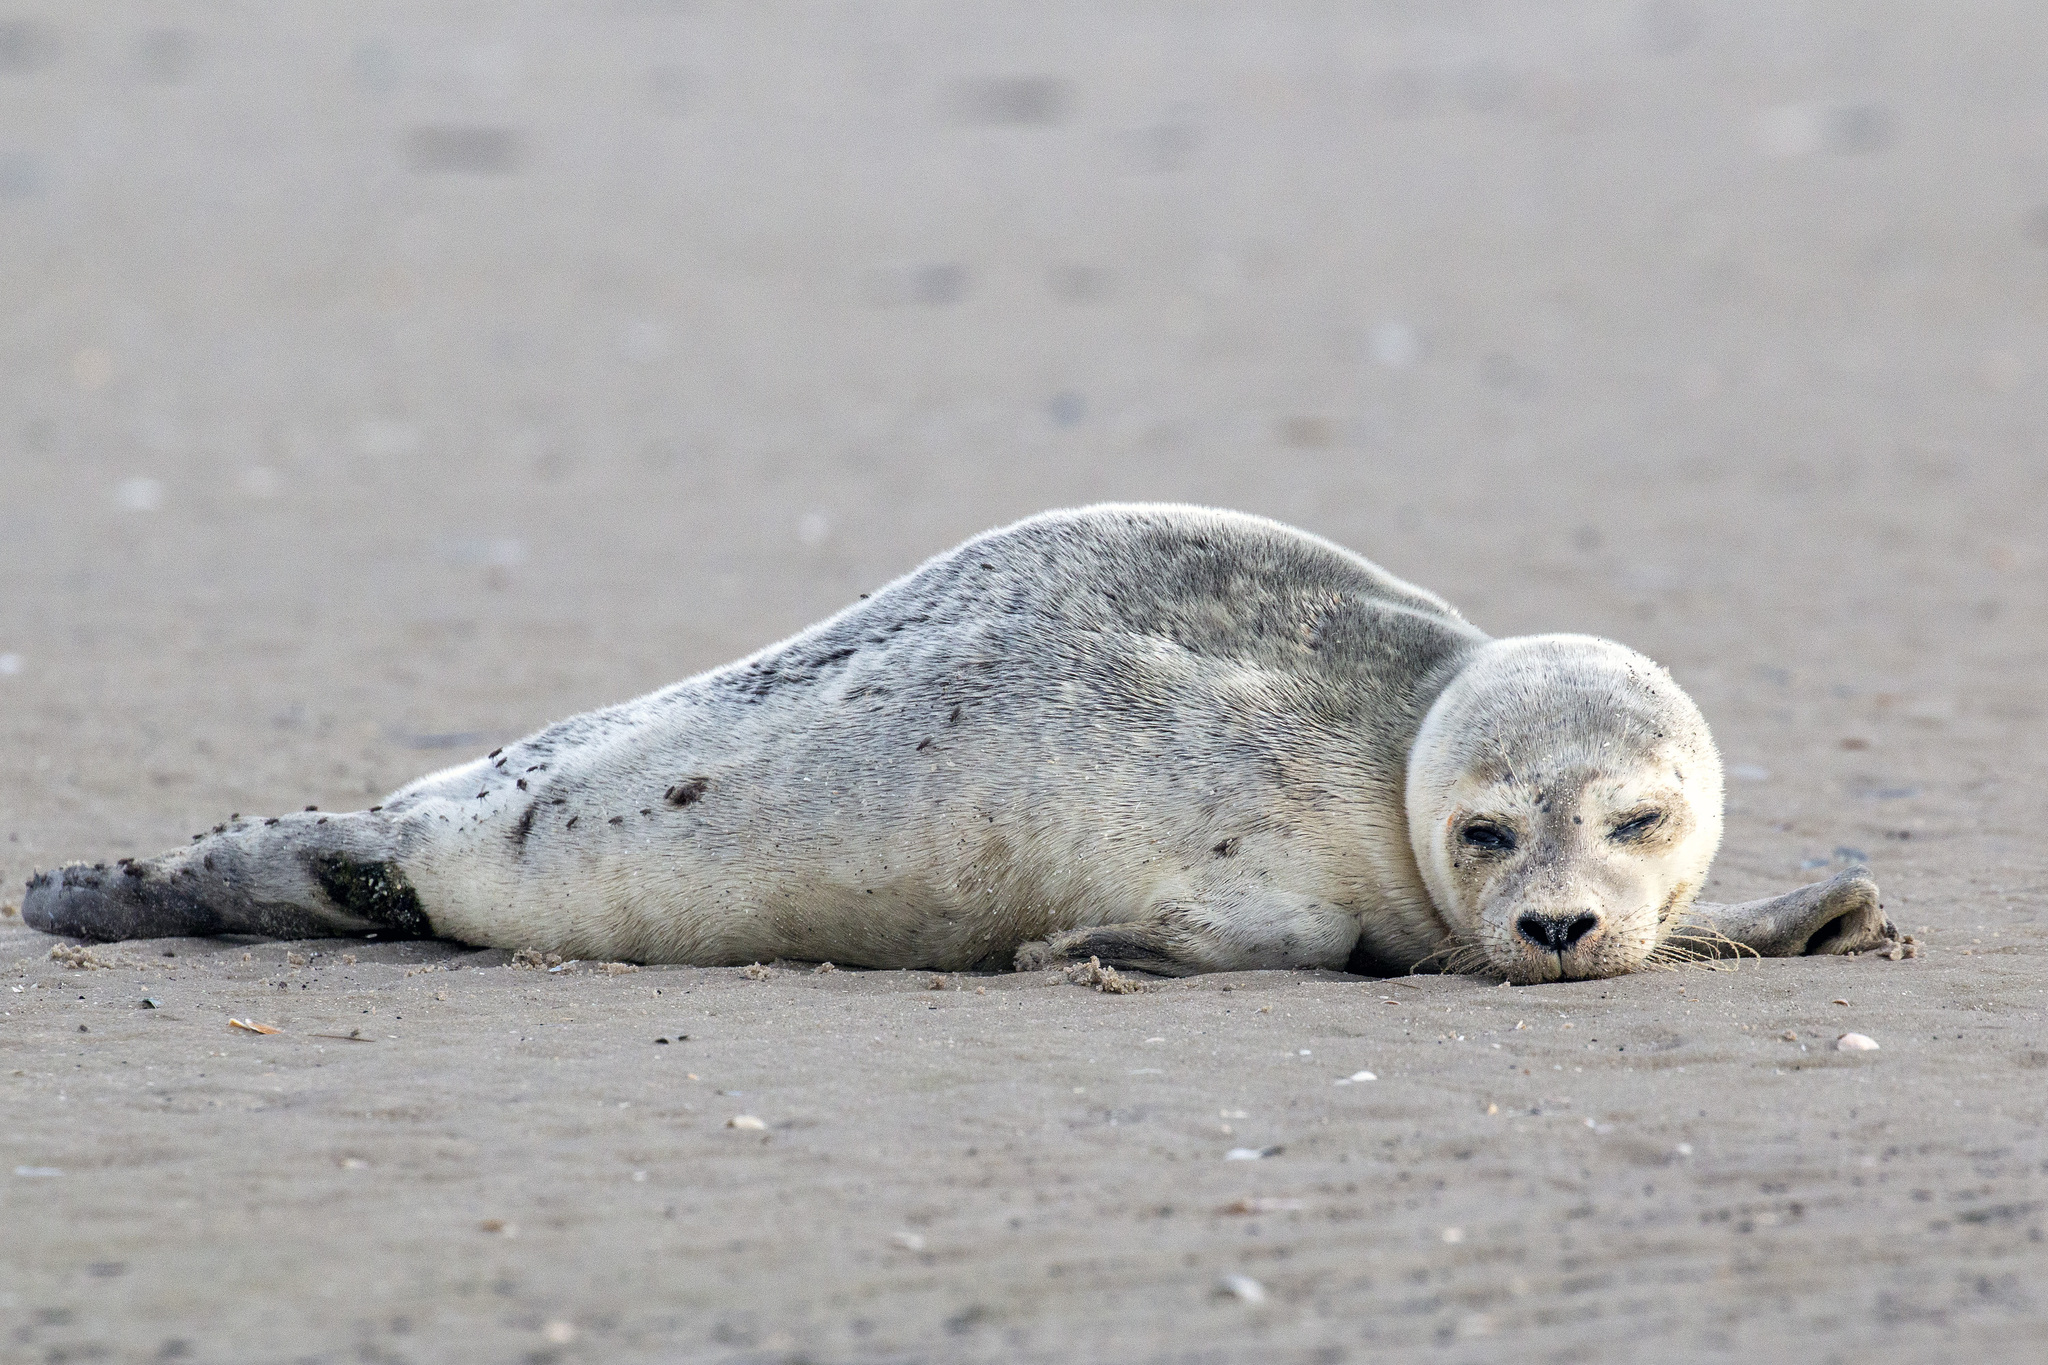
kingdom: Animalia
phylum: Chordata
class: Mammalia
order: Carnivora
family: Phocidae
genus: Phoca
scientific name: Phoca vitulina
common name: Harbor seal
